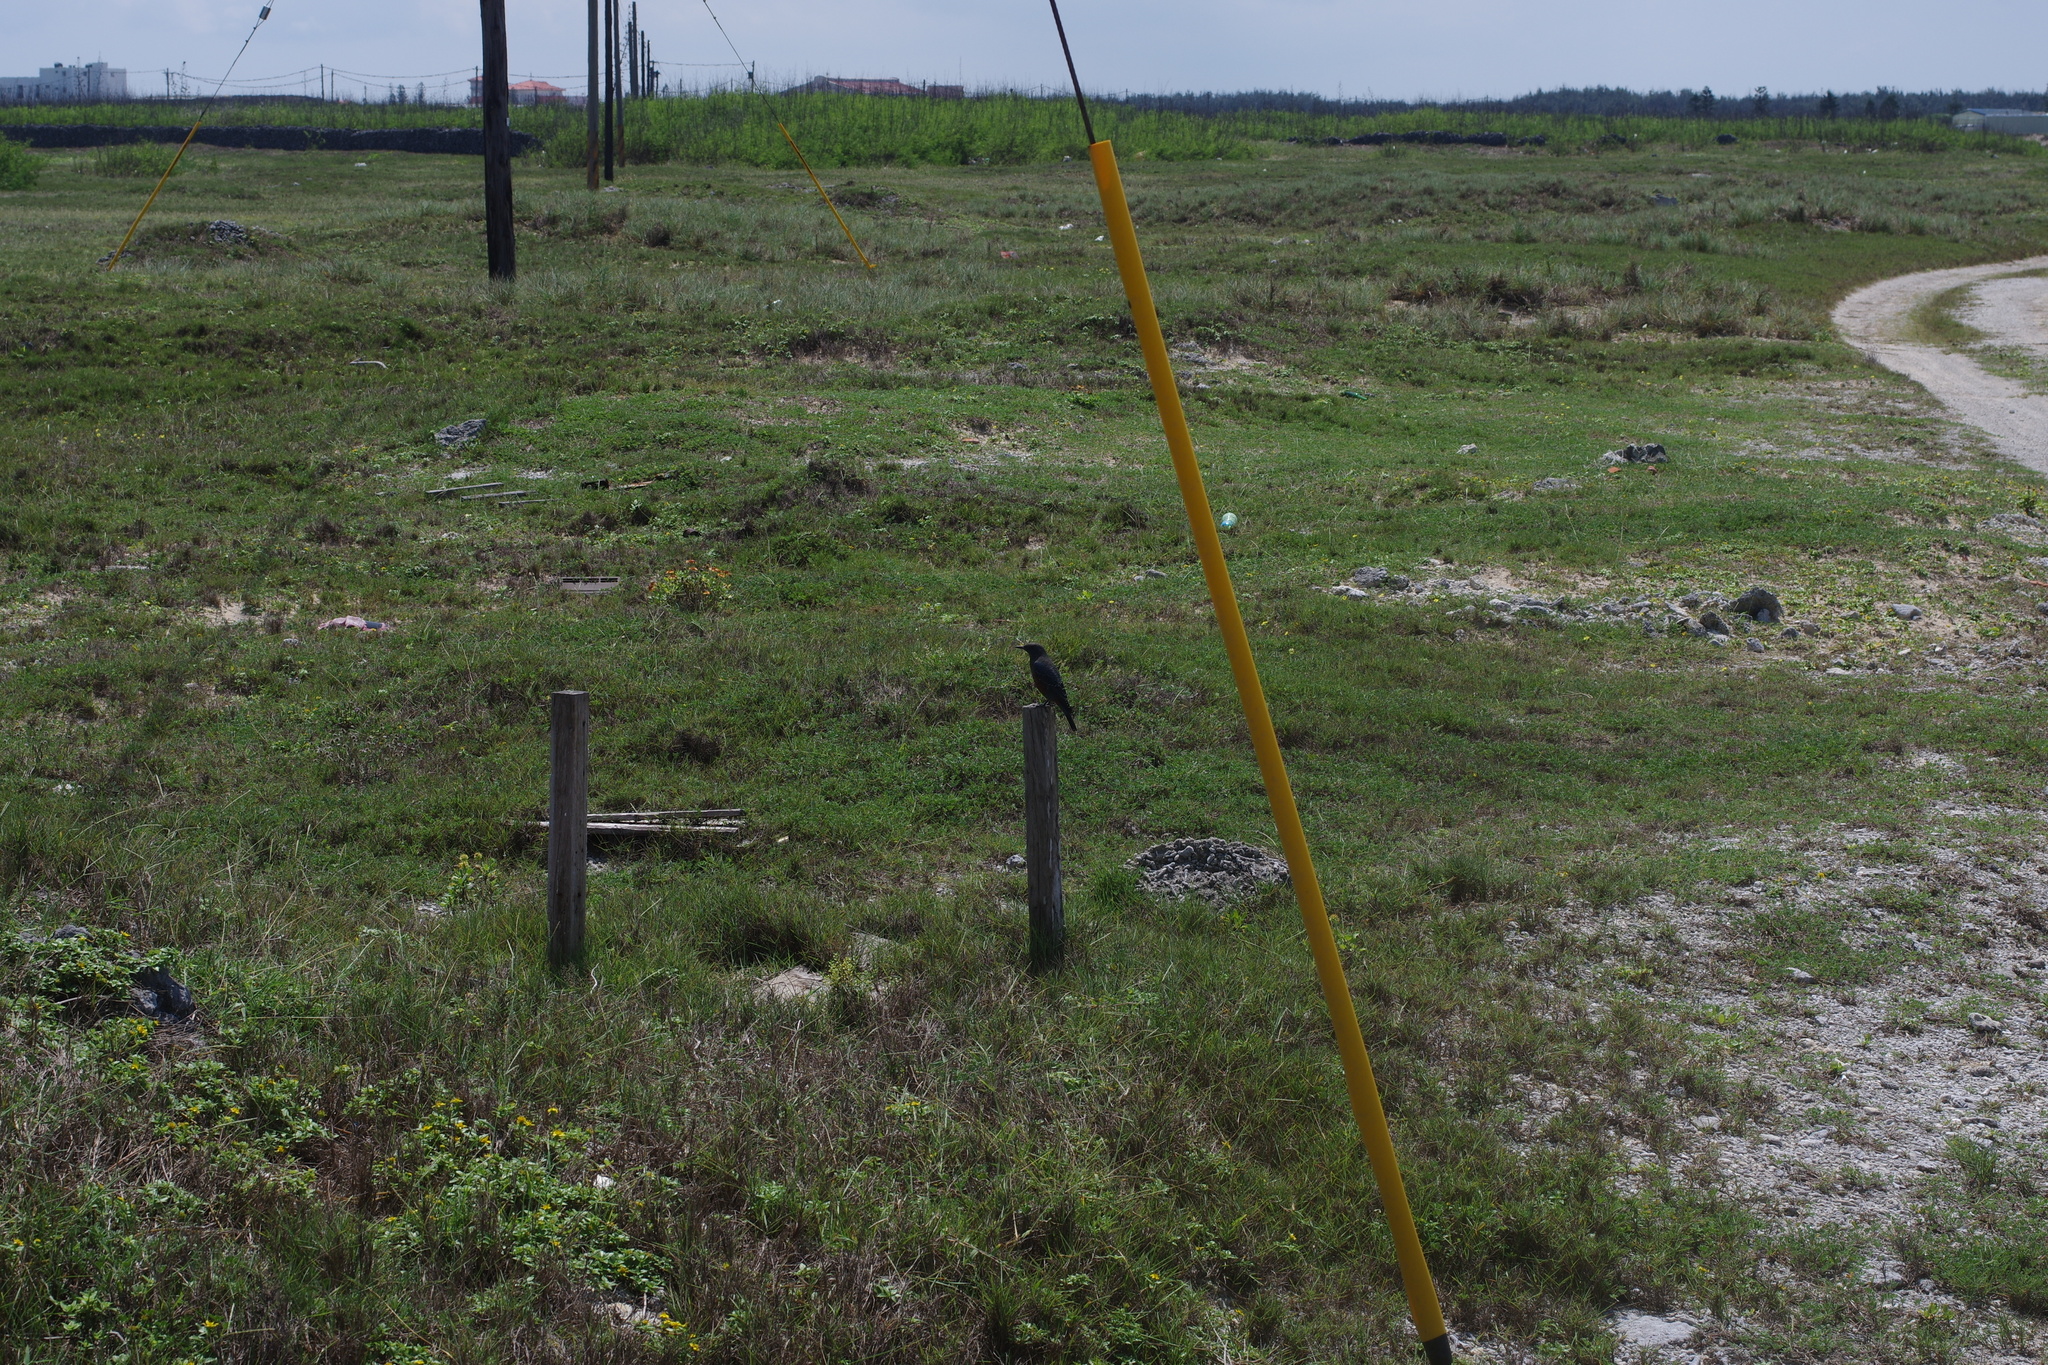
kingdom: Animalia
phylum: Chordata
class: Aves
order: Passeriformes
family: Muscicapidae
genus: Monticola
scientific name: Monticola solitarius
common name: Blue rock thrush
